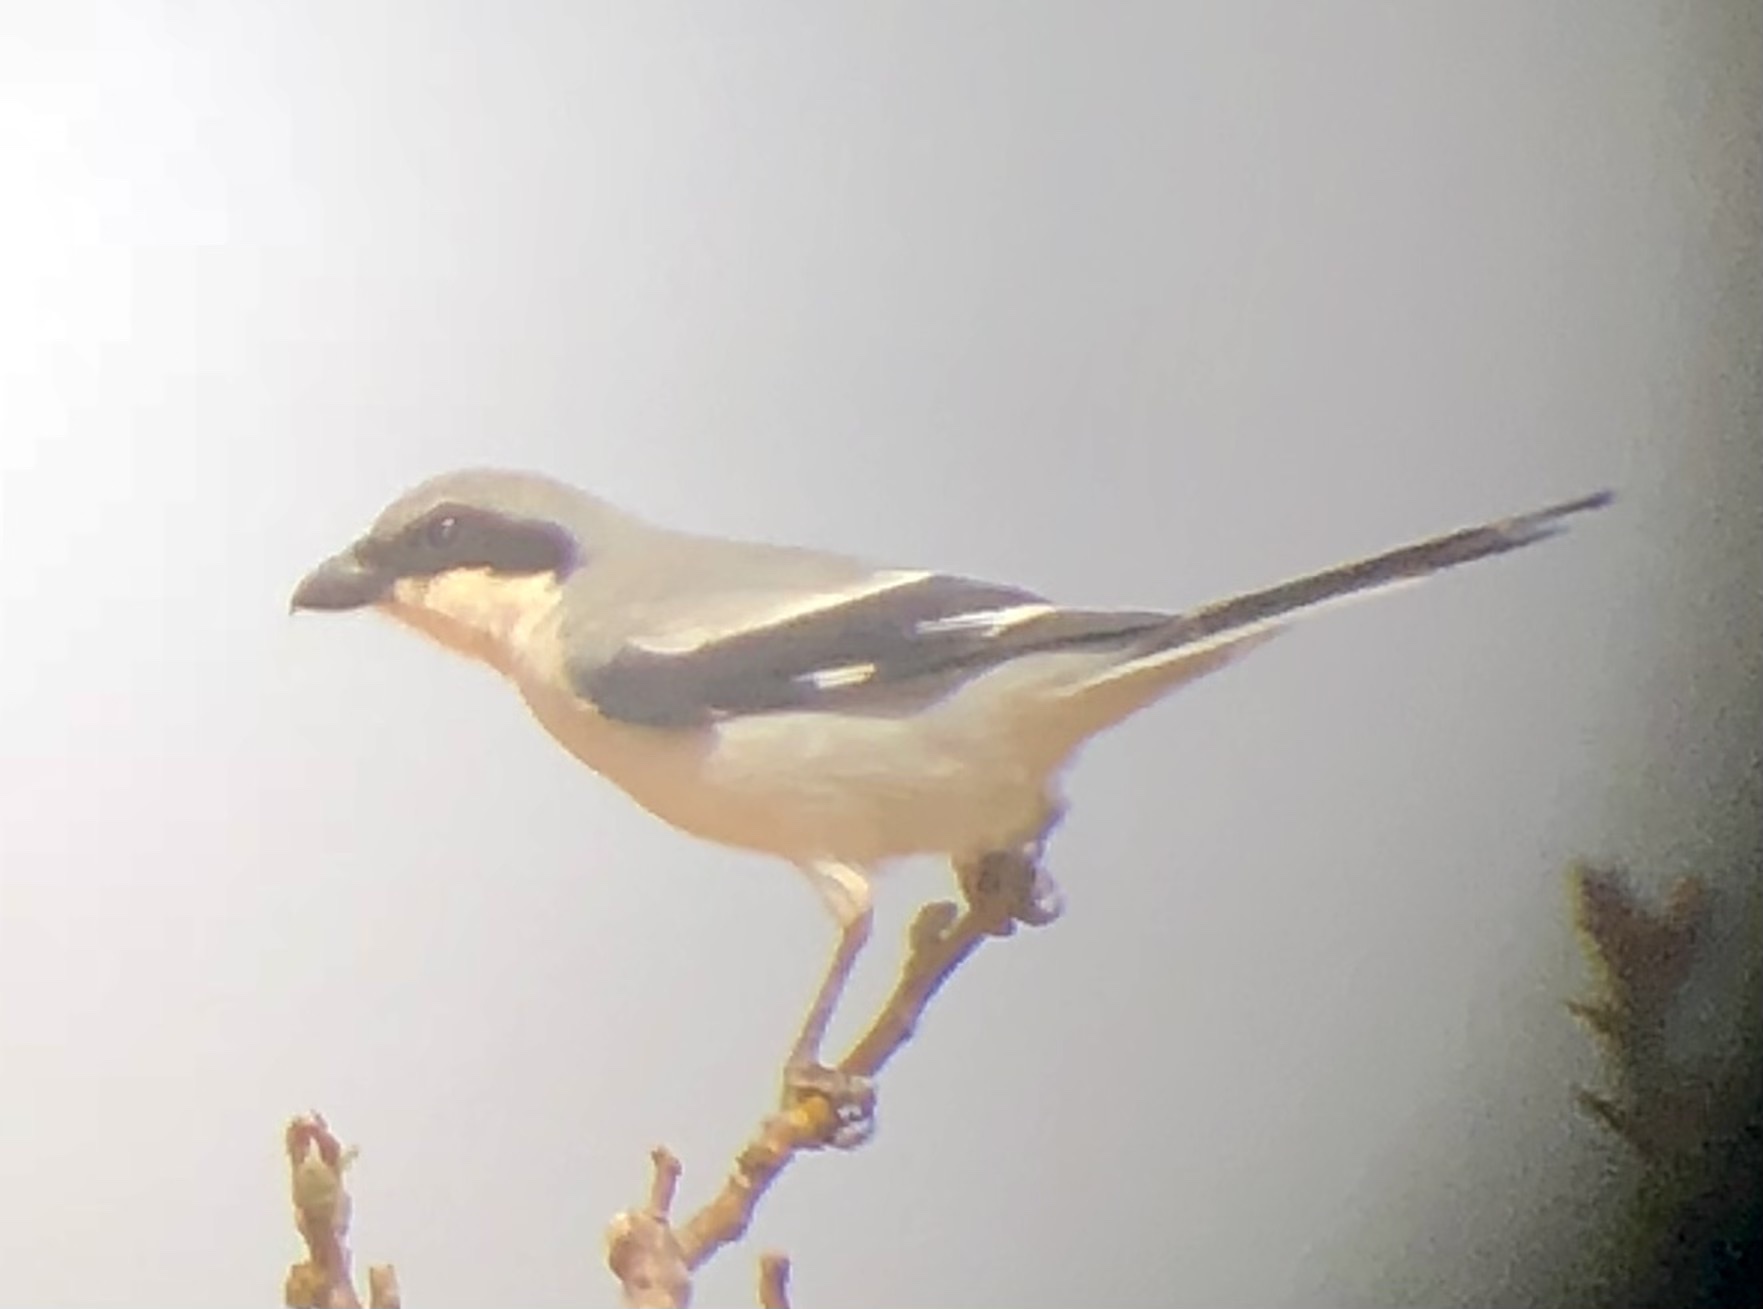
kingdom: Animalia
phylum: Chordata
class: Aves
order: Passeriformes
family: Laniidae
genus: Lanius
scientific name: Lanius excubitor
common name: Great grey shrike
